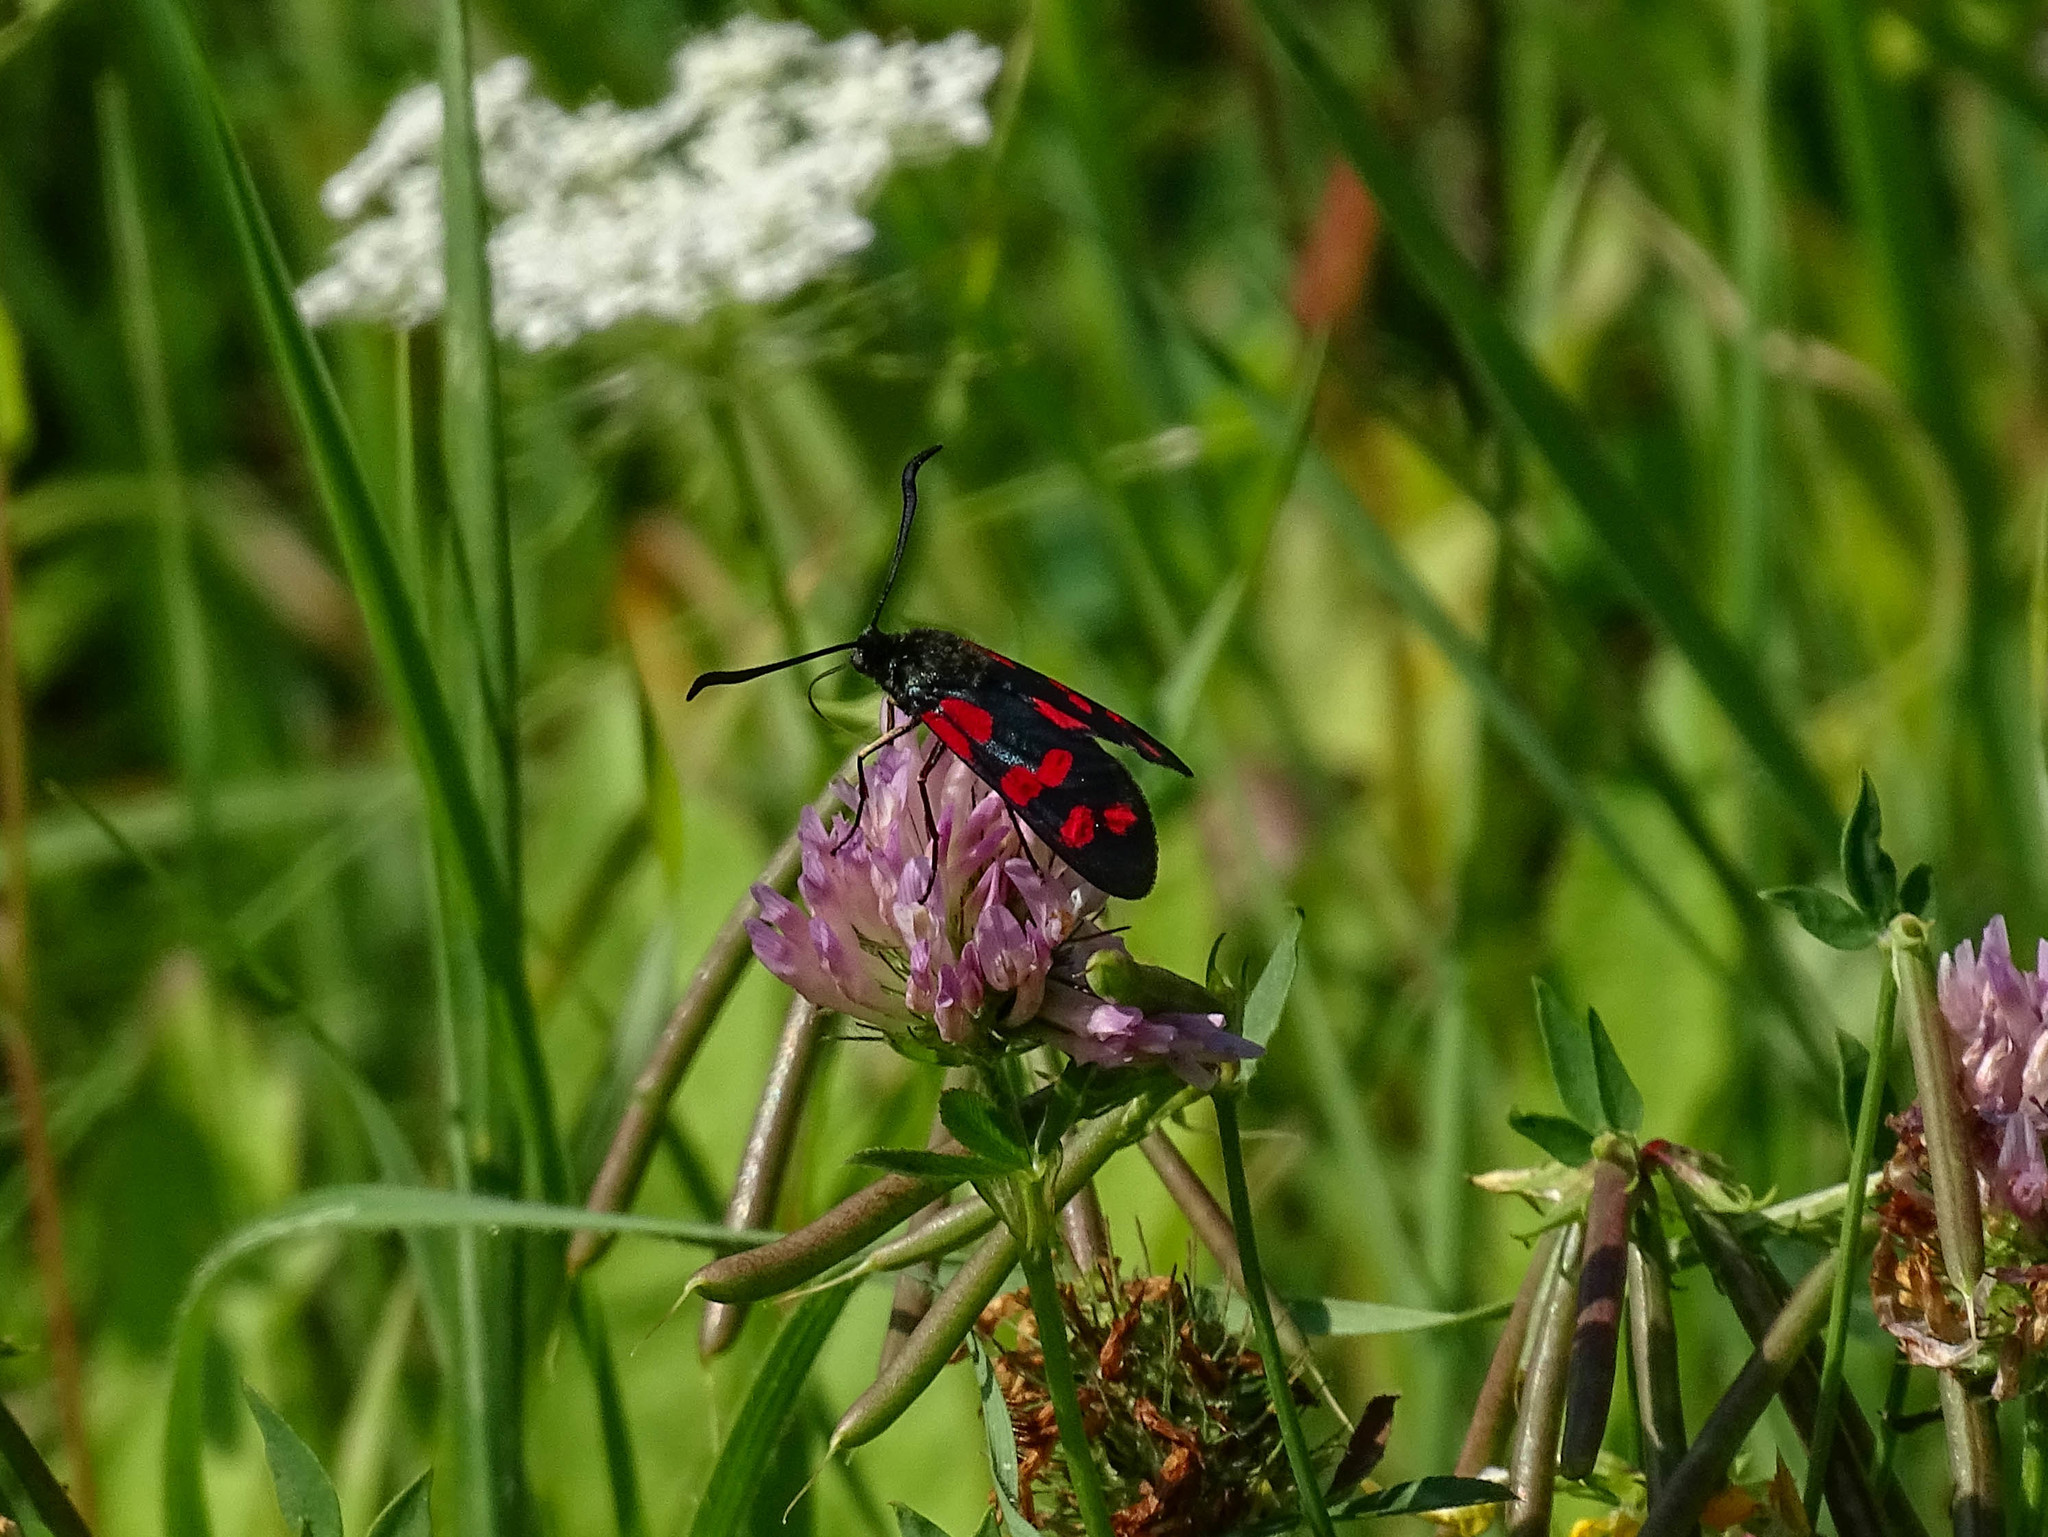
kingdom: Animalia
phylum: Arthropoda
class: Insecta
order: Lepidoptera
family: Zygaenidae
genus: Zygaena
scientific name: Zygaena filipendulae
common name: Six-spot burnet
